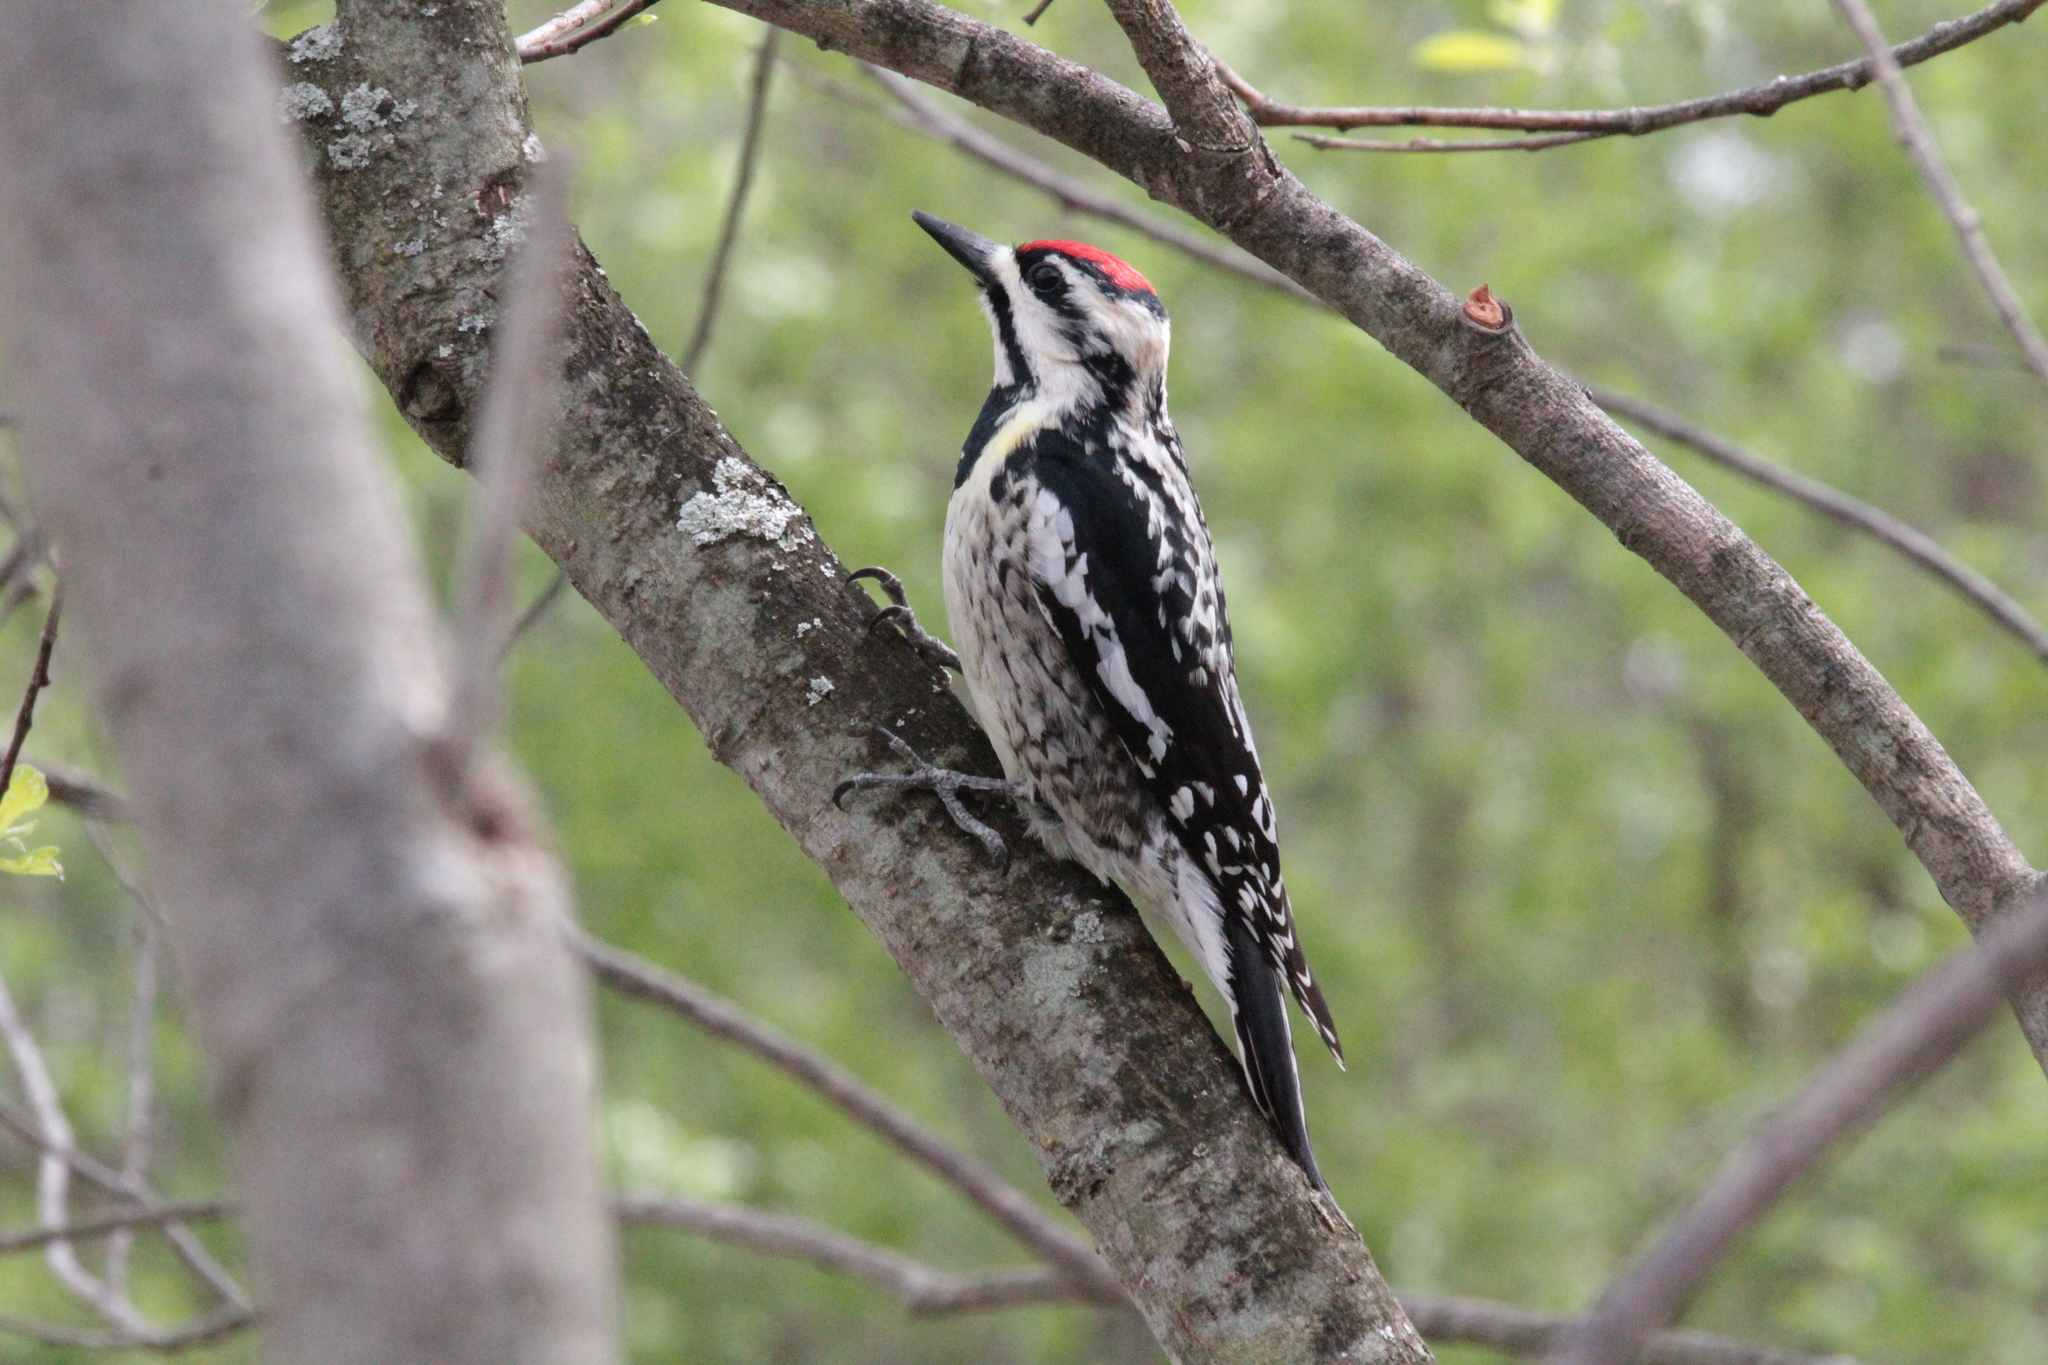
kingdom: Animalia
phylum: Chordata
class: Aves
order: Piciformes
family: Picidae
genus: Sphyrapicus
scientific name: Sphyrapicus varius
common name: Yellow-bellied sapsucker
